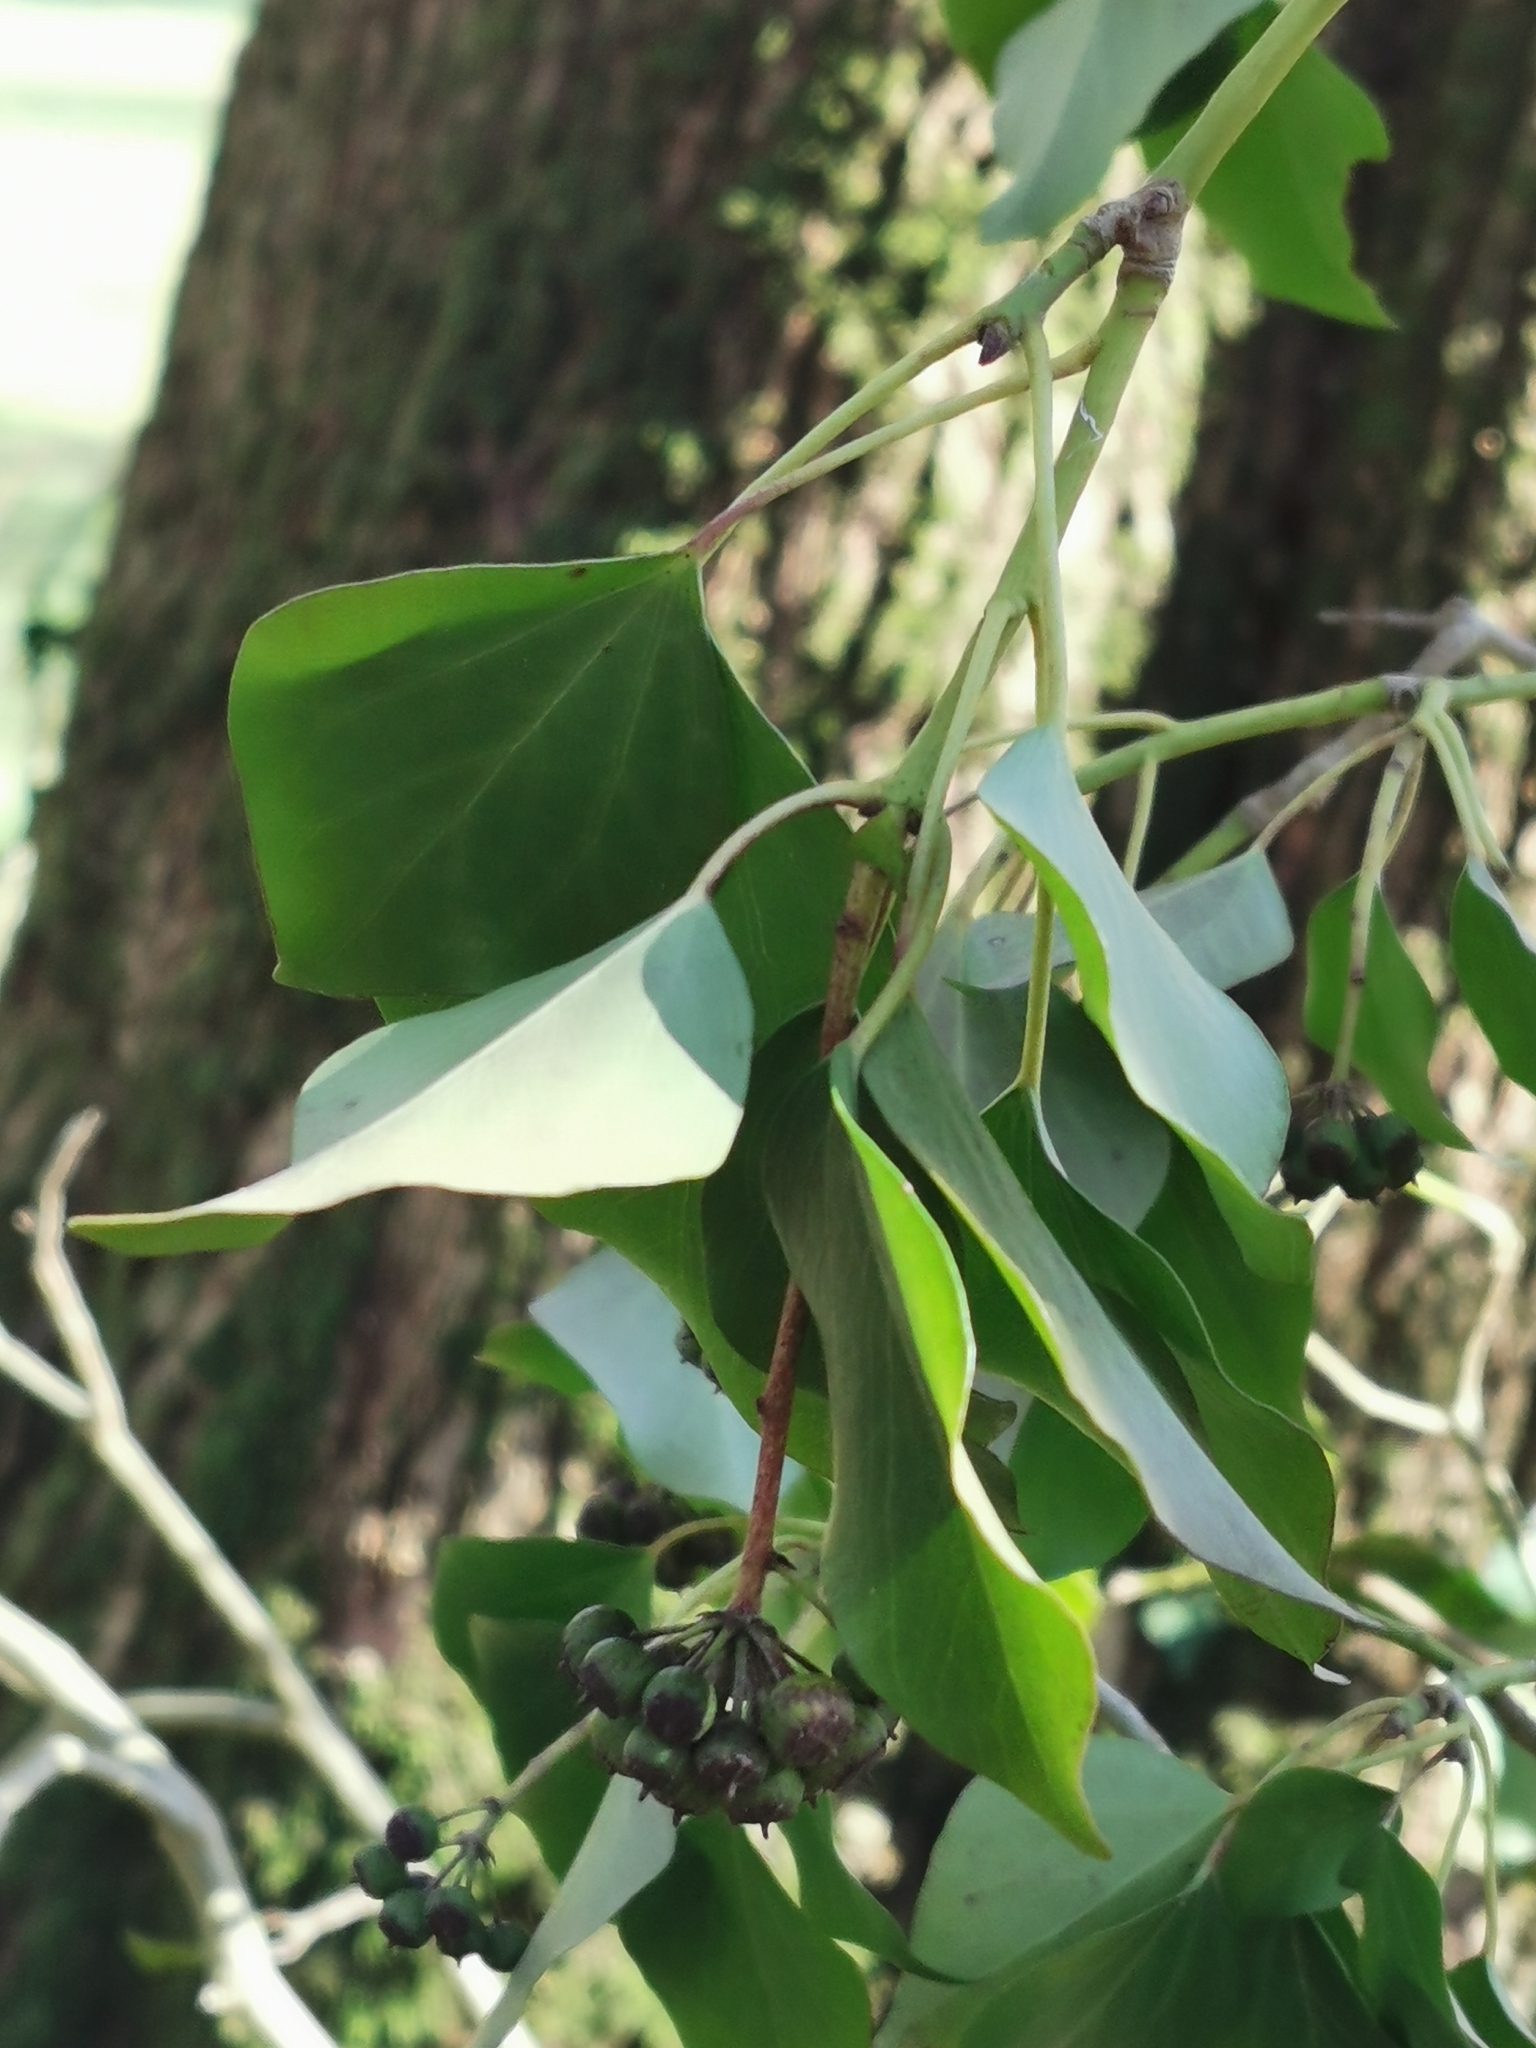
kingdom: Plantae
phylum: Tracheophyta
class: Magnoliopsida
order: Apiales
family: Araliaceae
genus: Hedera
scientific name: Hedera helix
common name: Ivy
